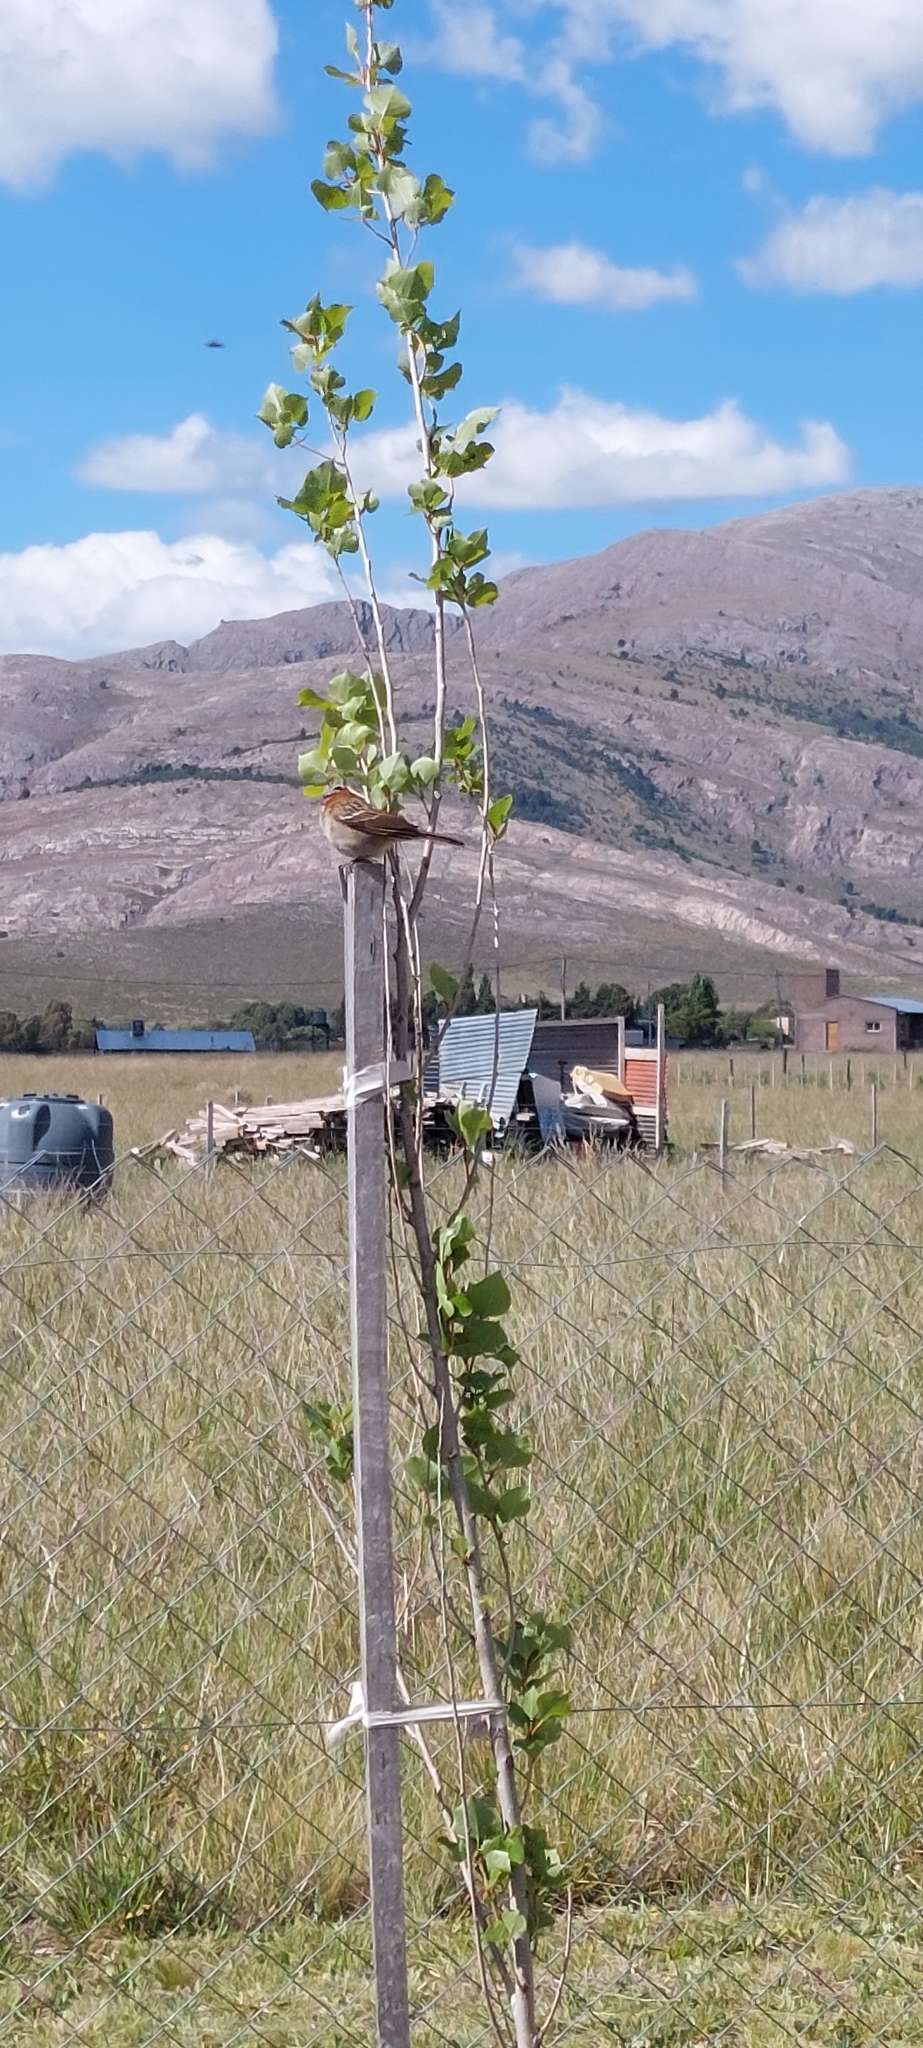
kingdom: Animalia
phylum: Chordata
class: Aves
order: Passeriformes
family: Passerellidae
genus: Zonotrichia
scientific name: Zonotrichia capensis
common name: Rufous-collared sparrow
